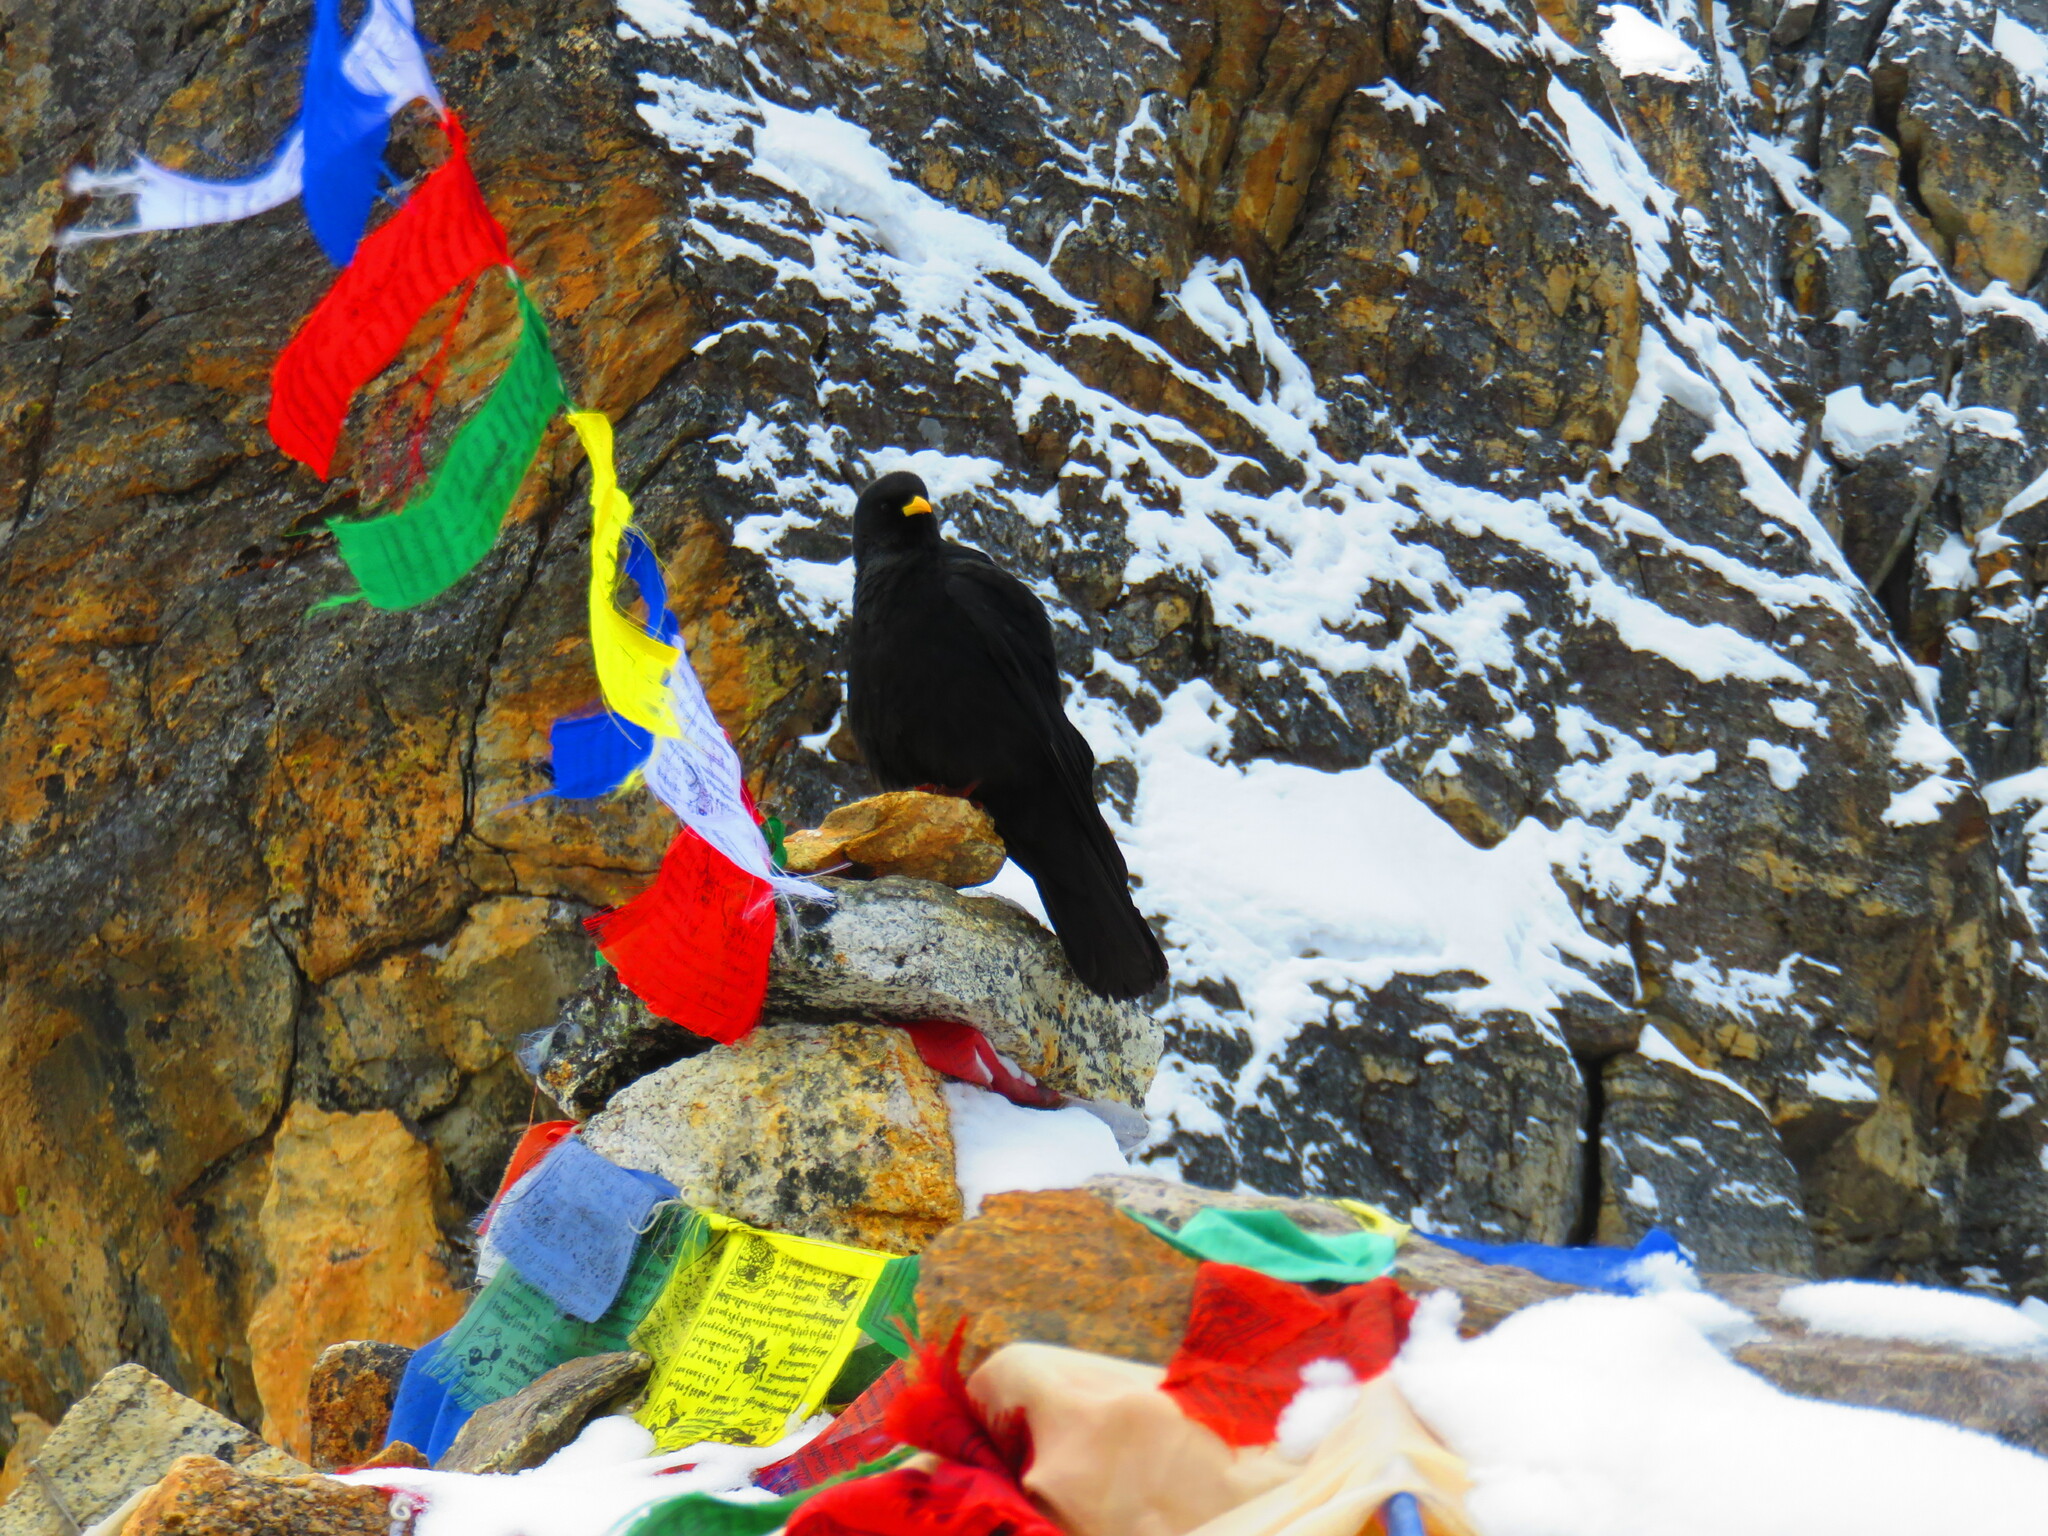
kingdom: Animalia
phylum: Chordata
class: Aves
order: Passeriformes
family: Corvidae
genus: Pyrrhocorax
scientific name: Pyrrhocorax graculus
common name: Alpine chough
